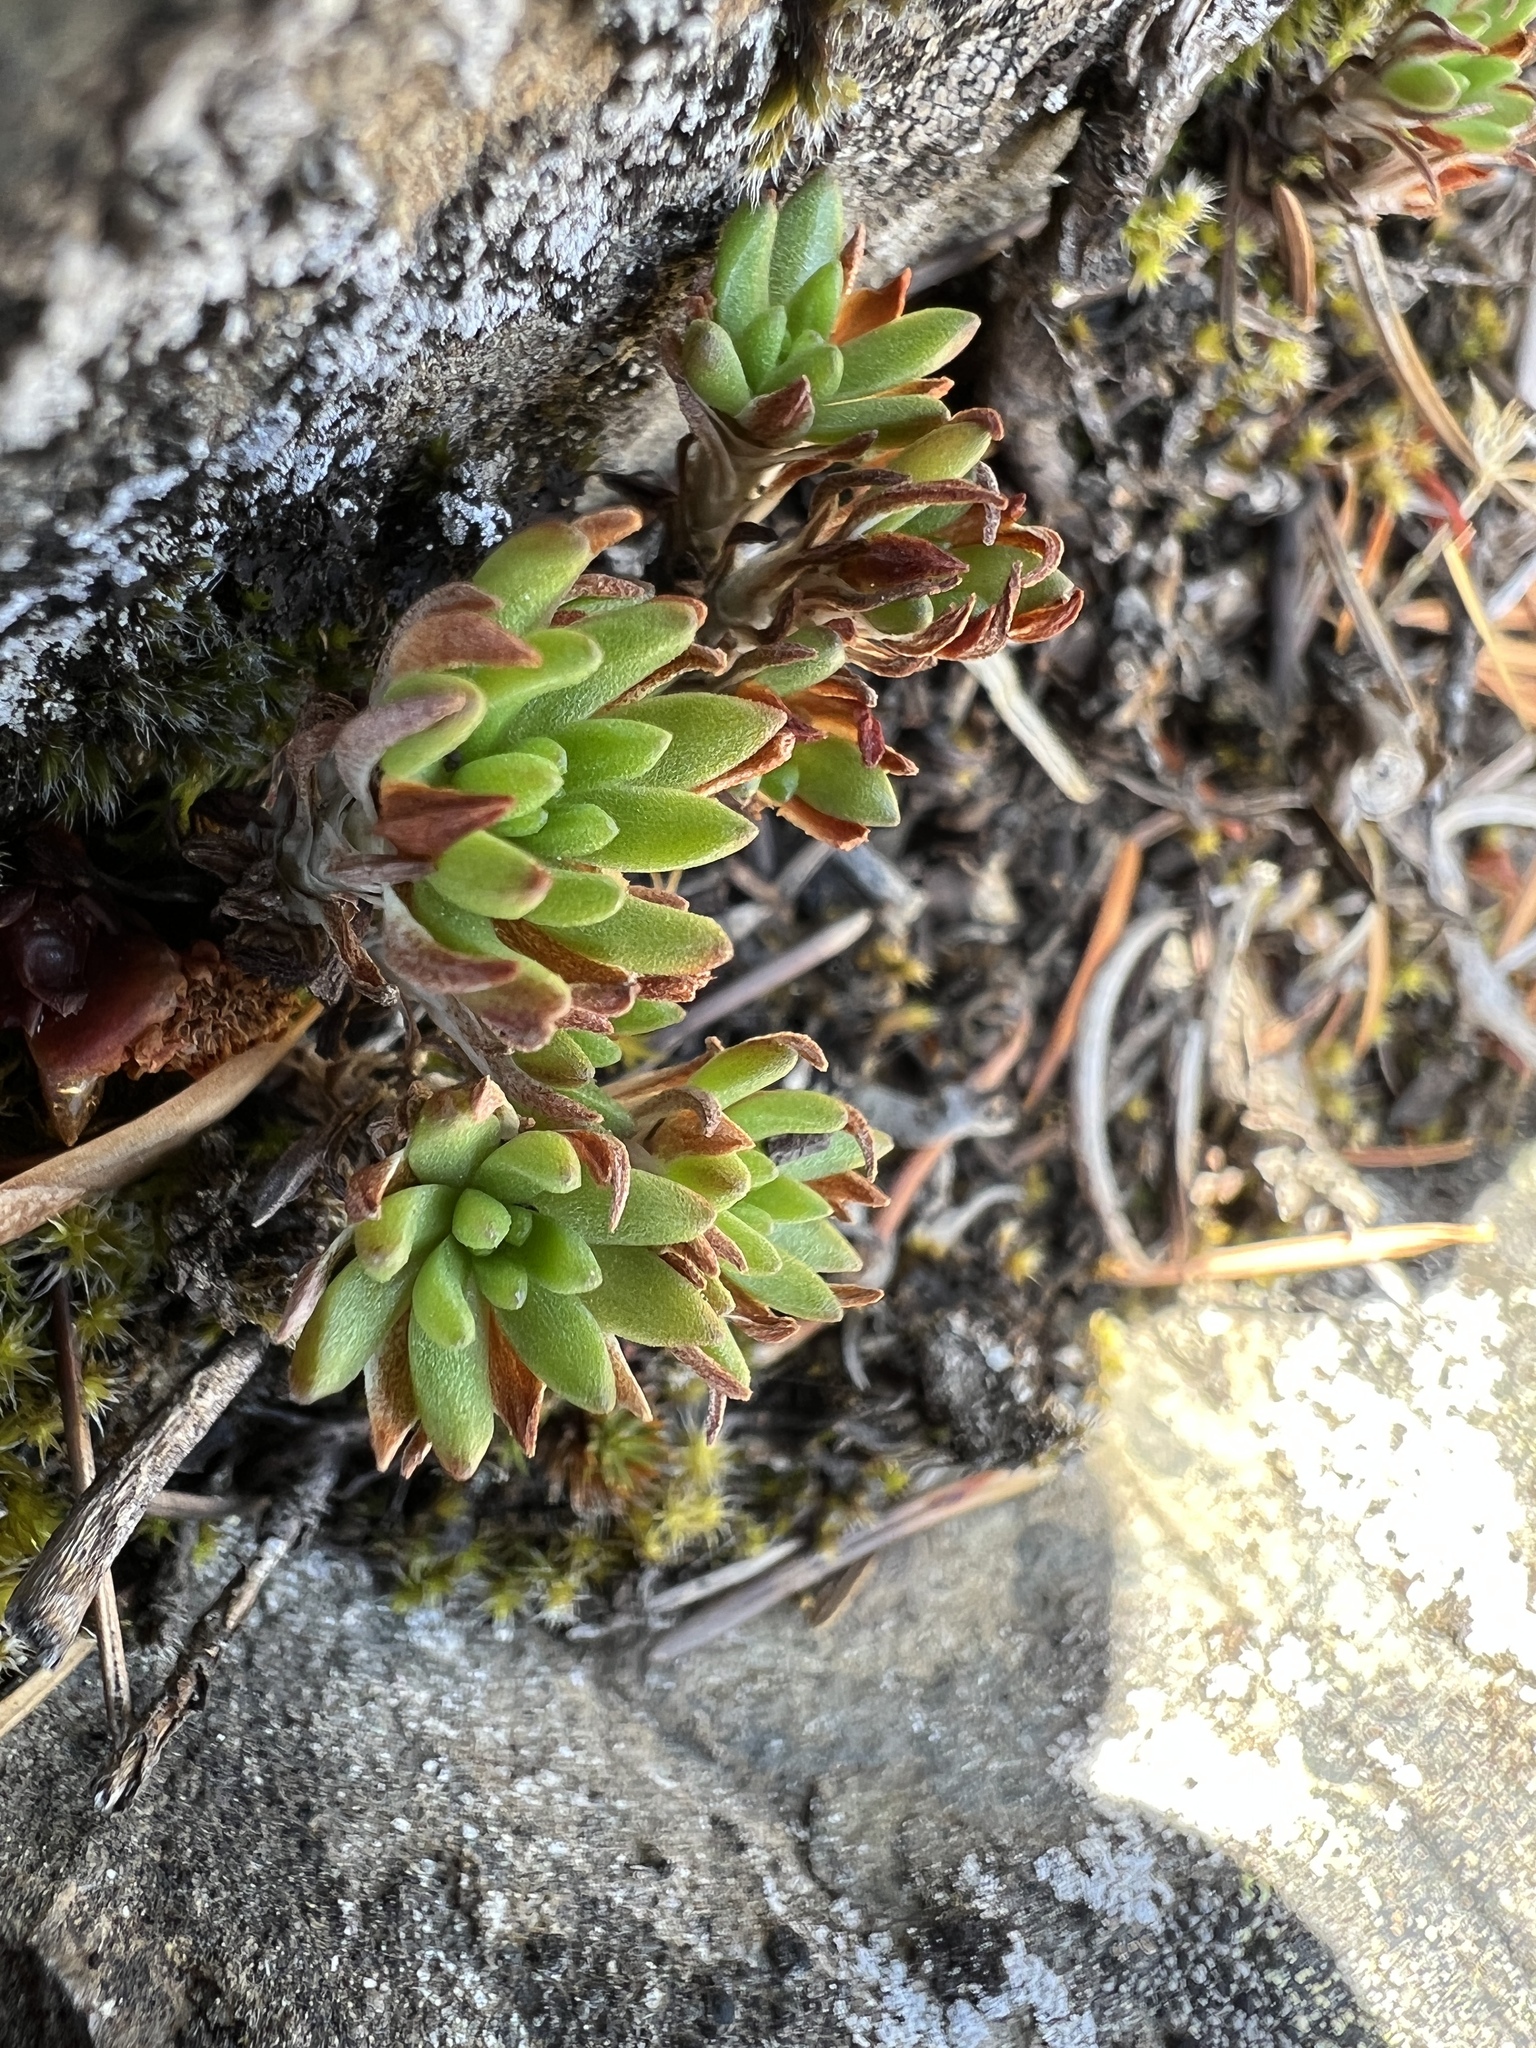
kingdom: Plantae
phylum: Tracheophyta
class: Magnoliopsida
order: Saxifragales
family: Crassulaceae
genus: Sedum
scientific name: Sedum stenopetalum
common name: Narrow-petaled stonecrop
